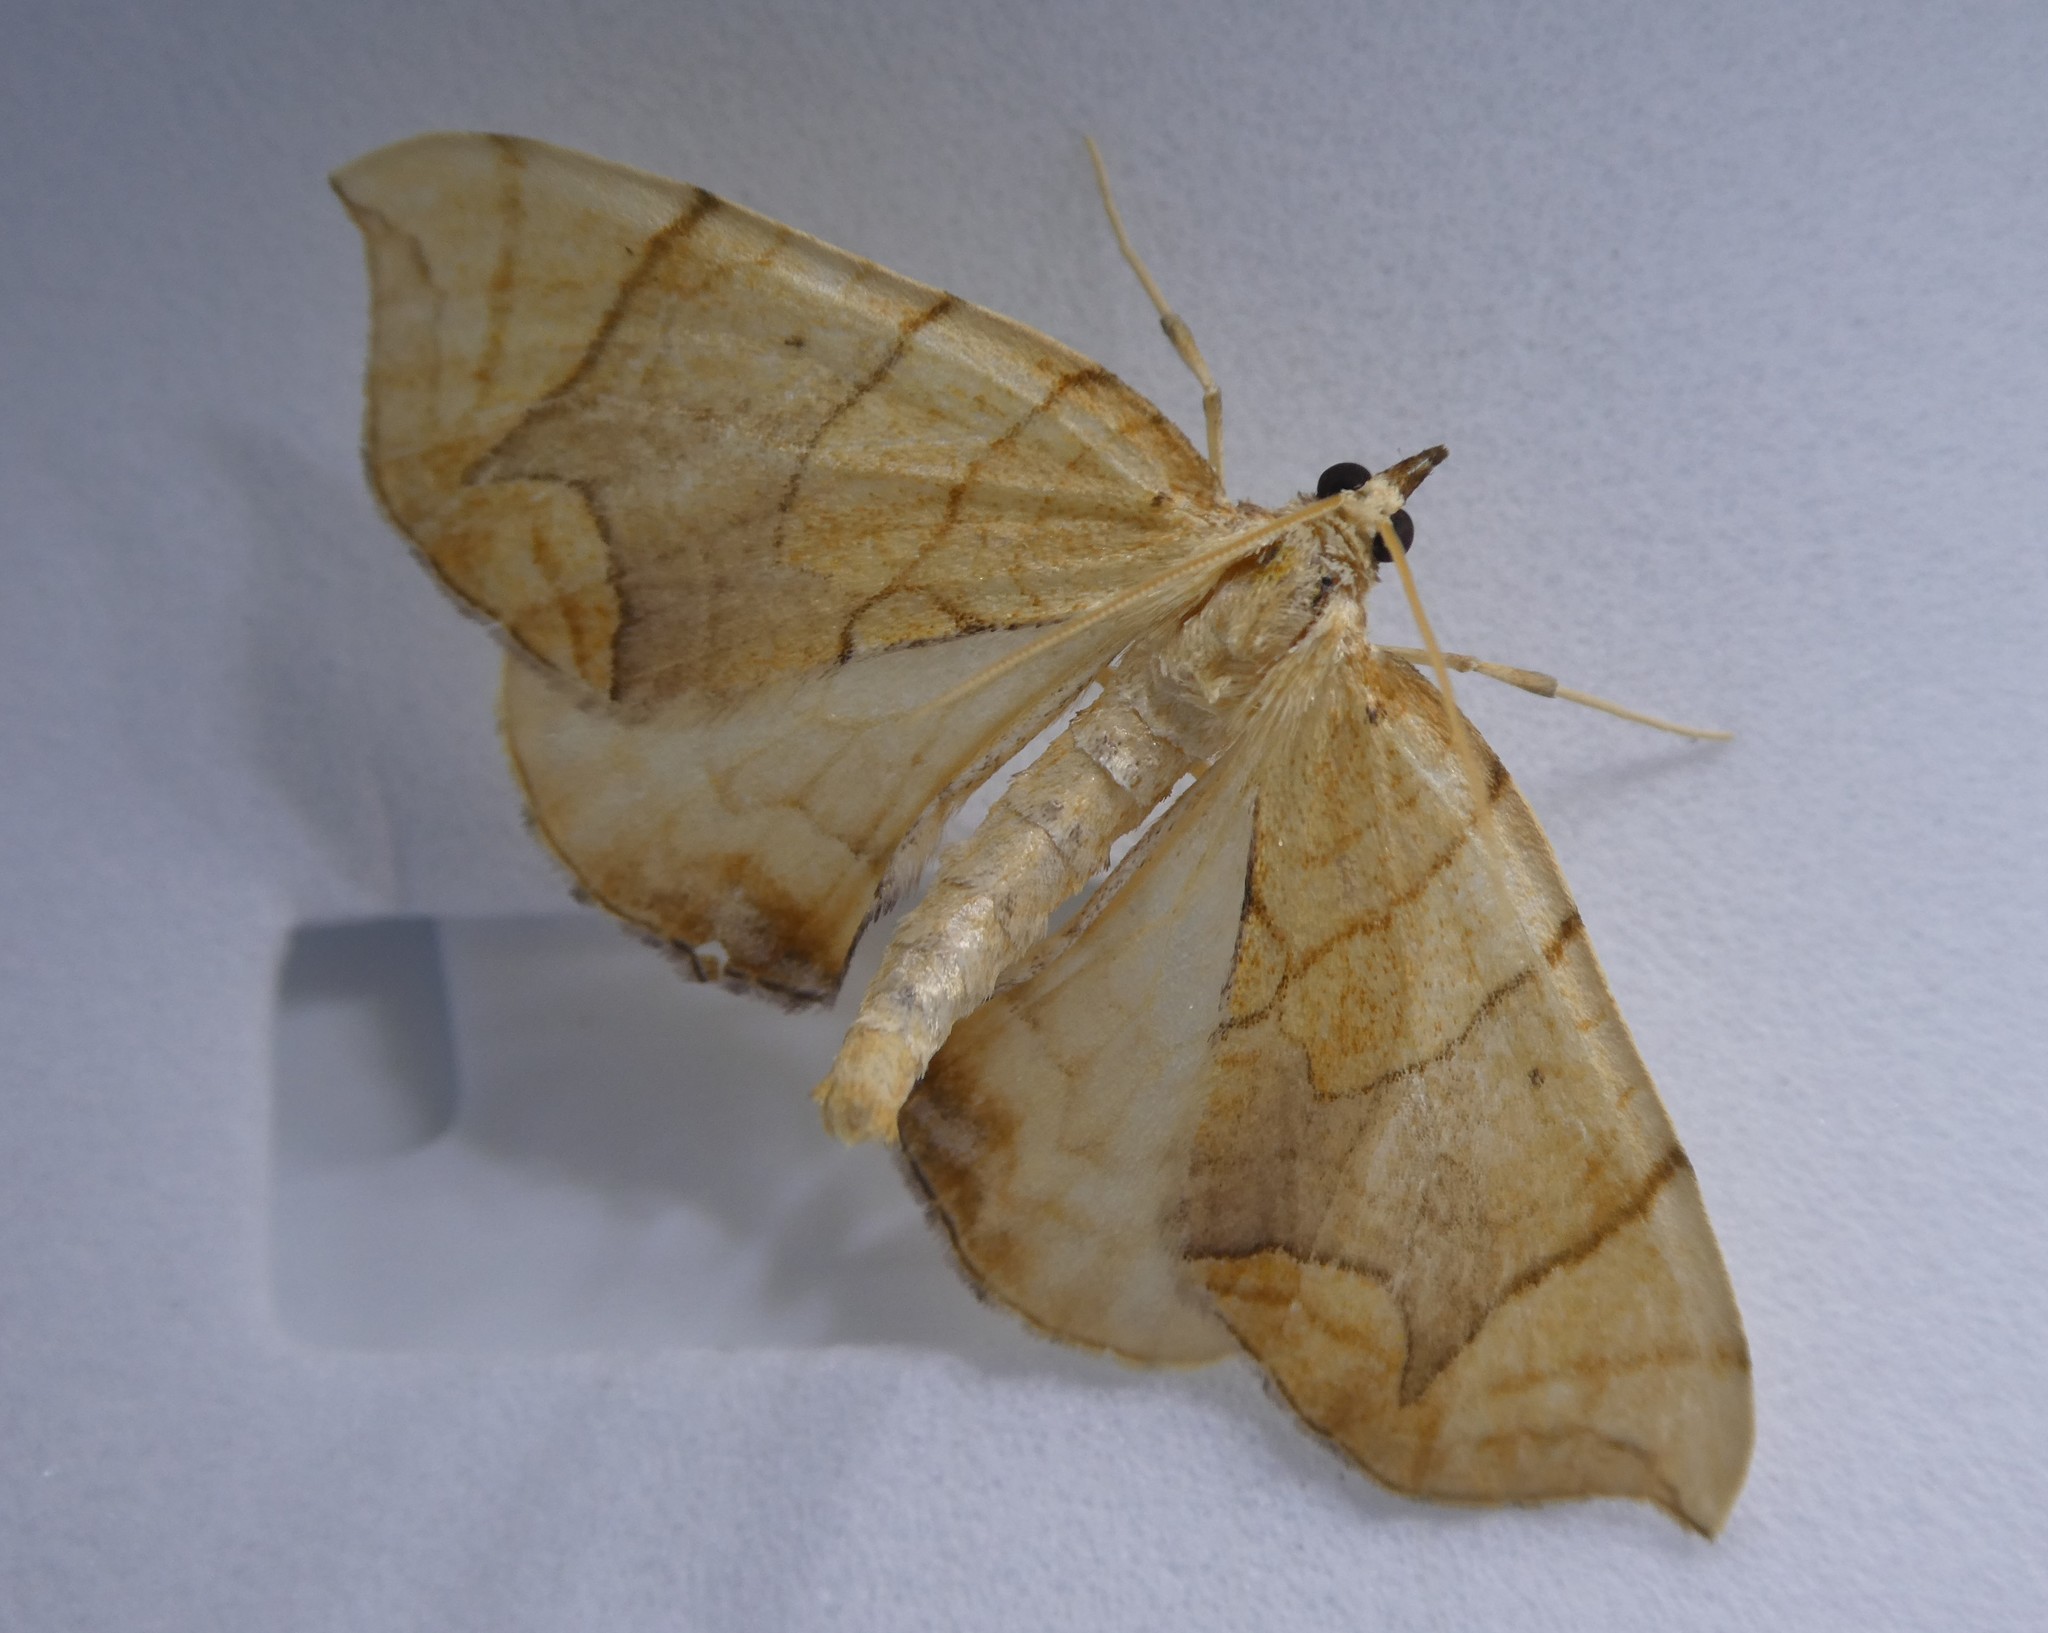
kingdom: Animalia
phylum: Arthropoda
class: Insecta
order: Lepidoptera
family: Geometridae
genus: Eulithis
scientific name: Eulithis
